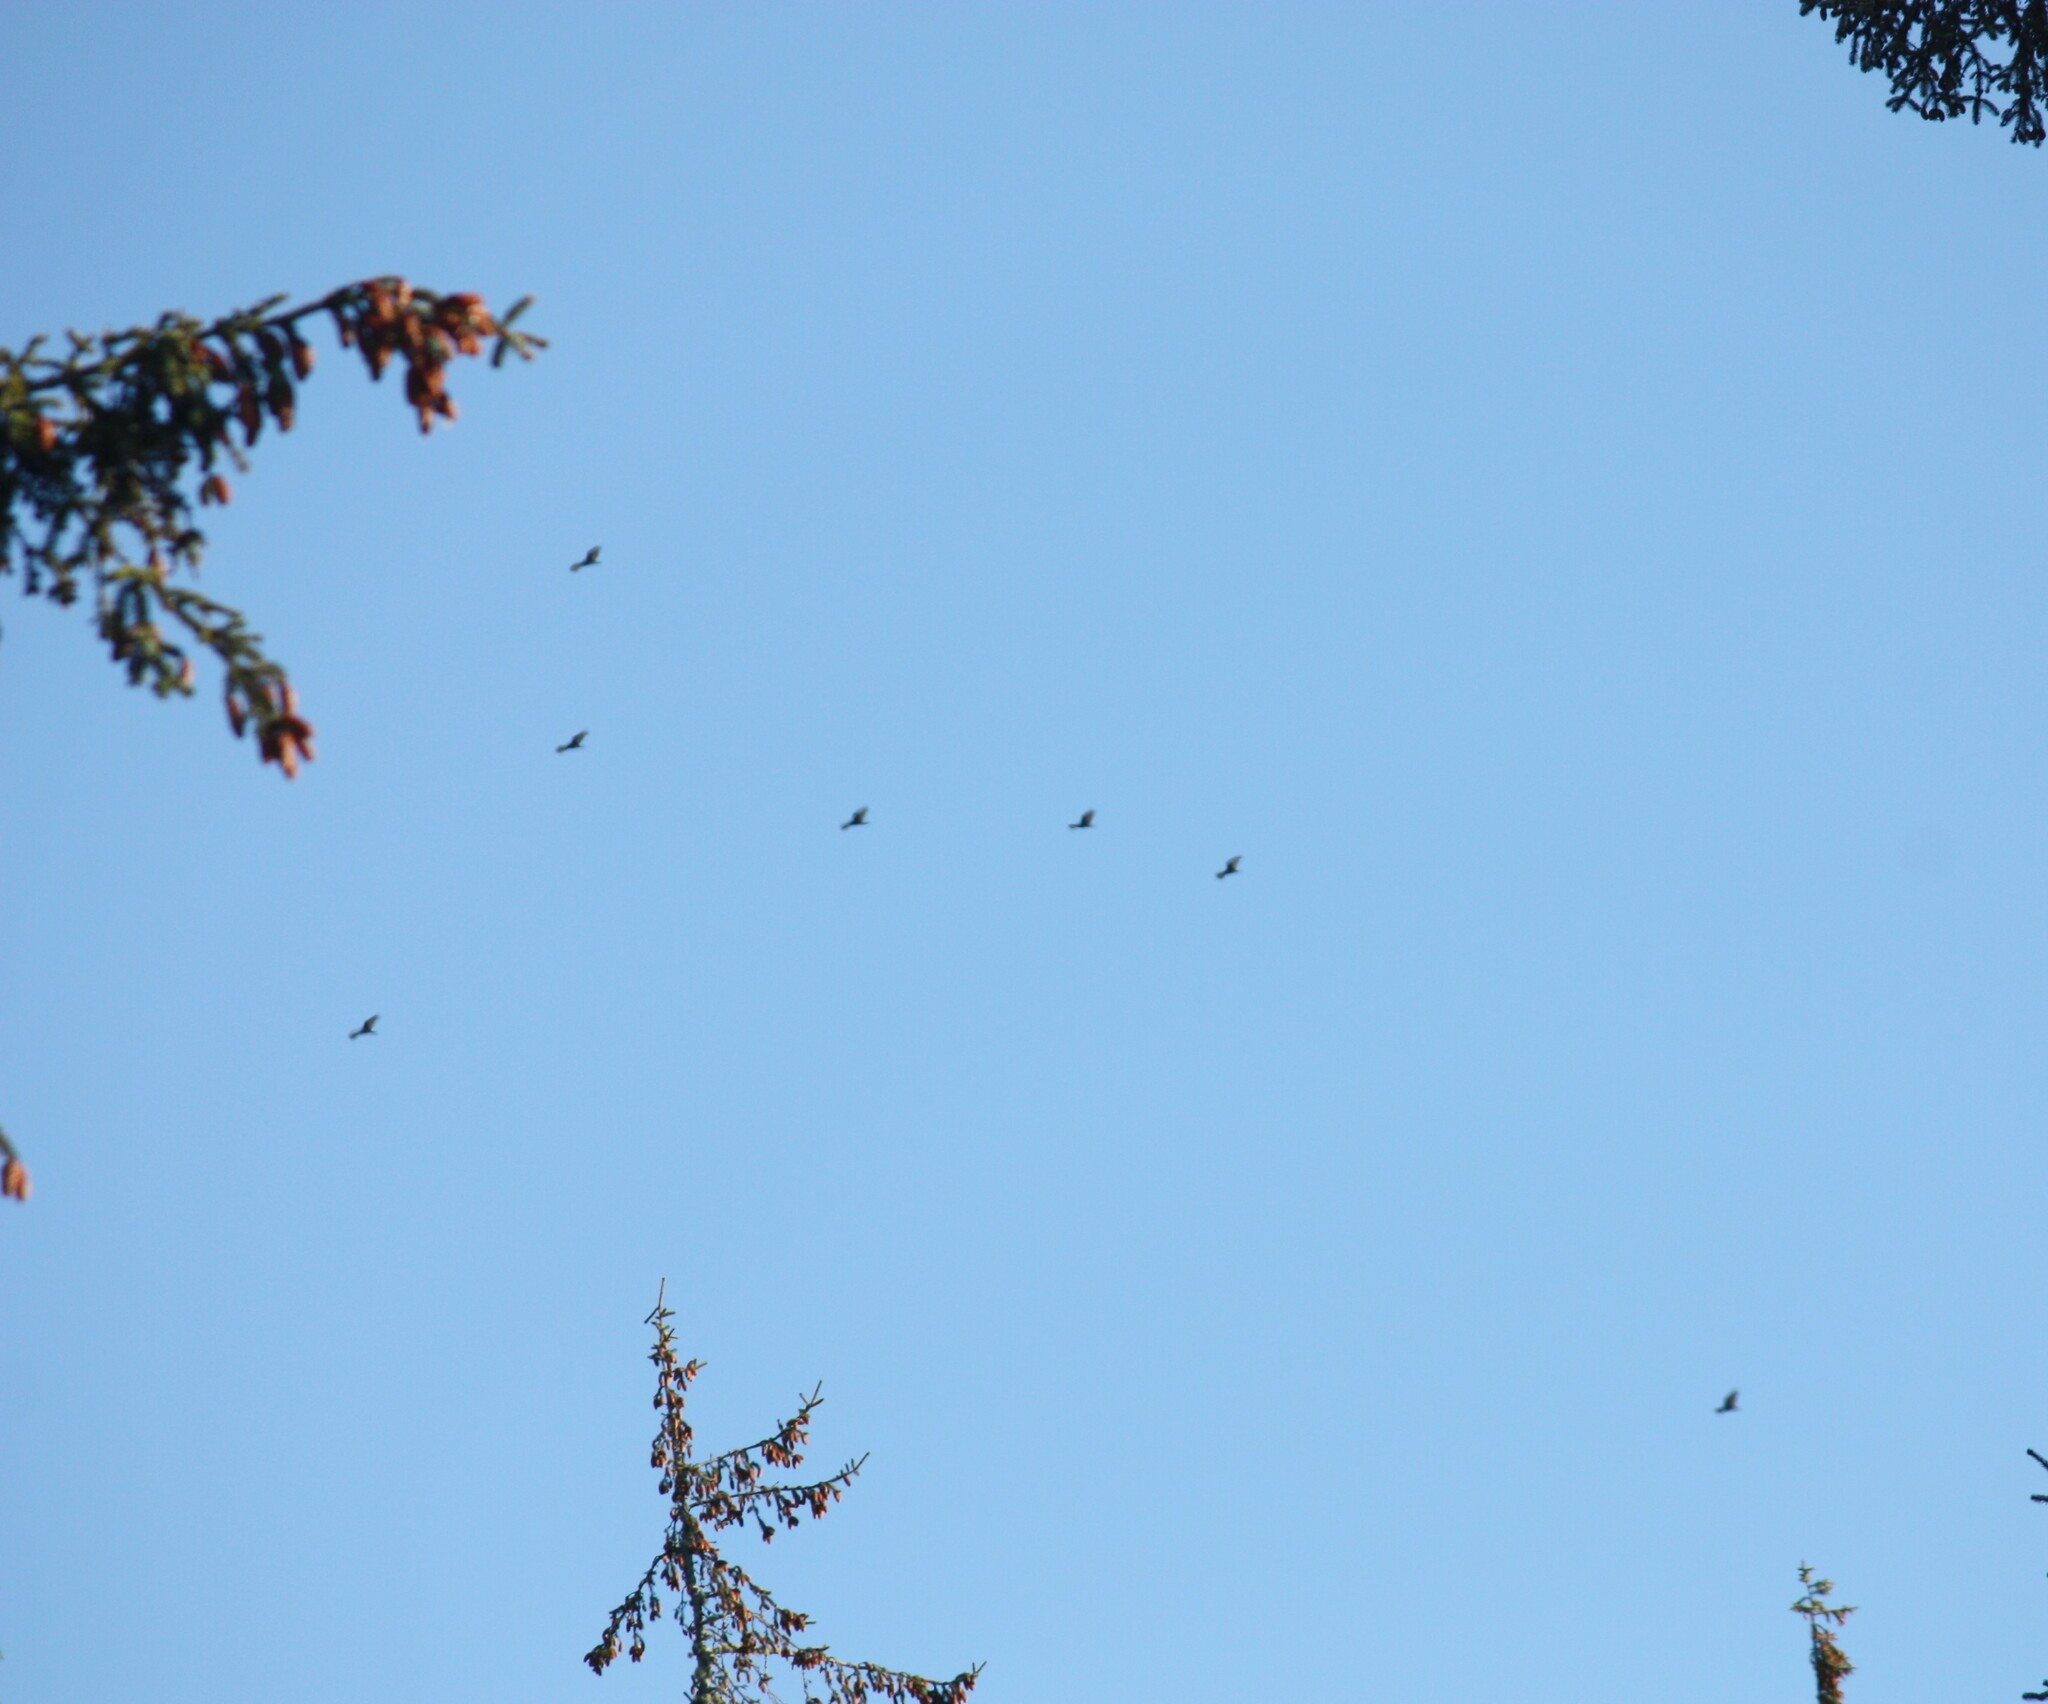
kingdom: Animalia
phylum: Chordata
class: Aves
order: Accipitriformes
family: Cathartidae
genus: Cathartes
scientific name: Cathartes aura
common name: Turkey vulture
